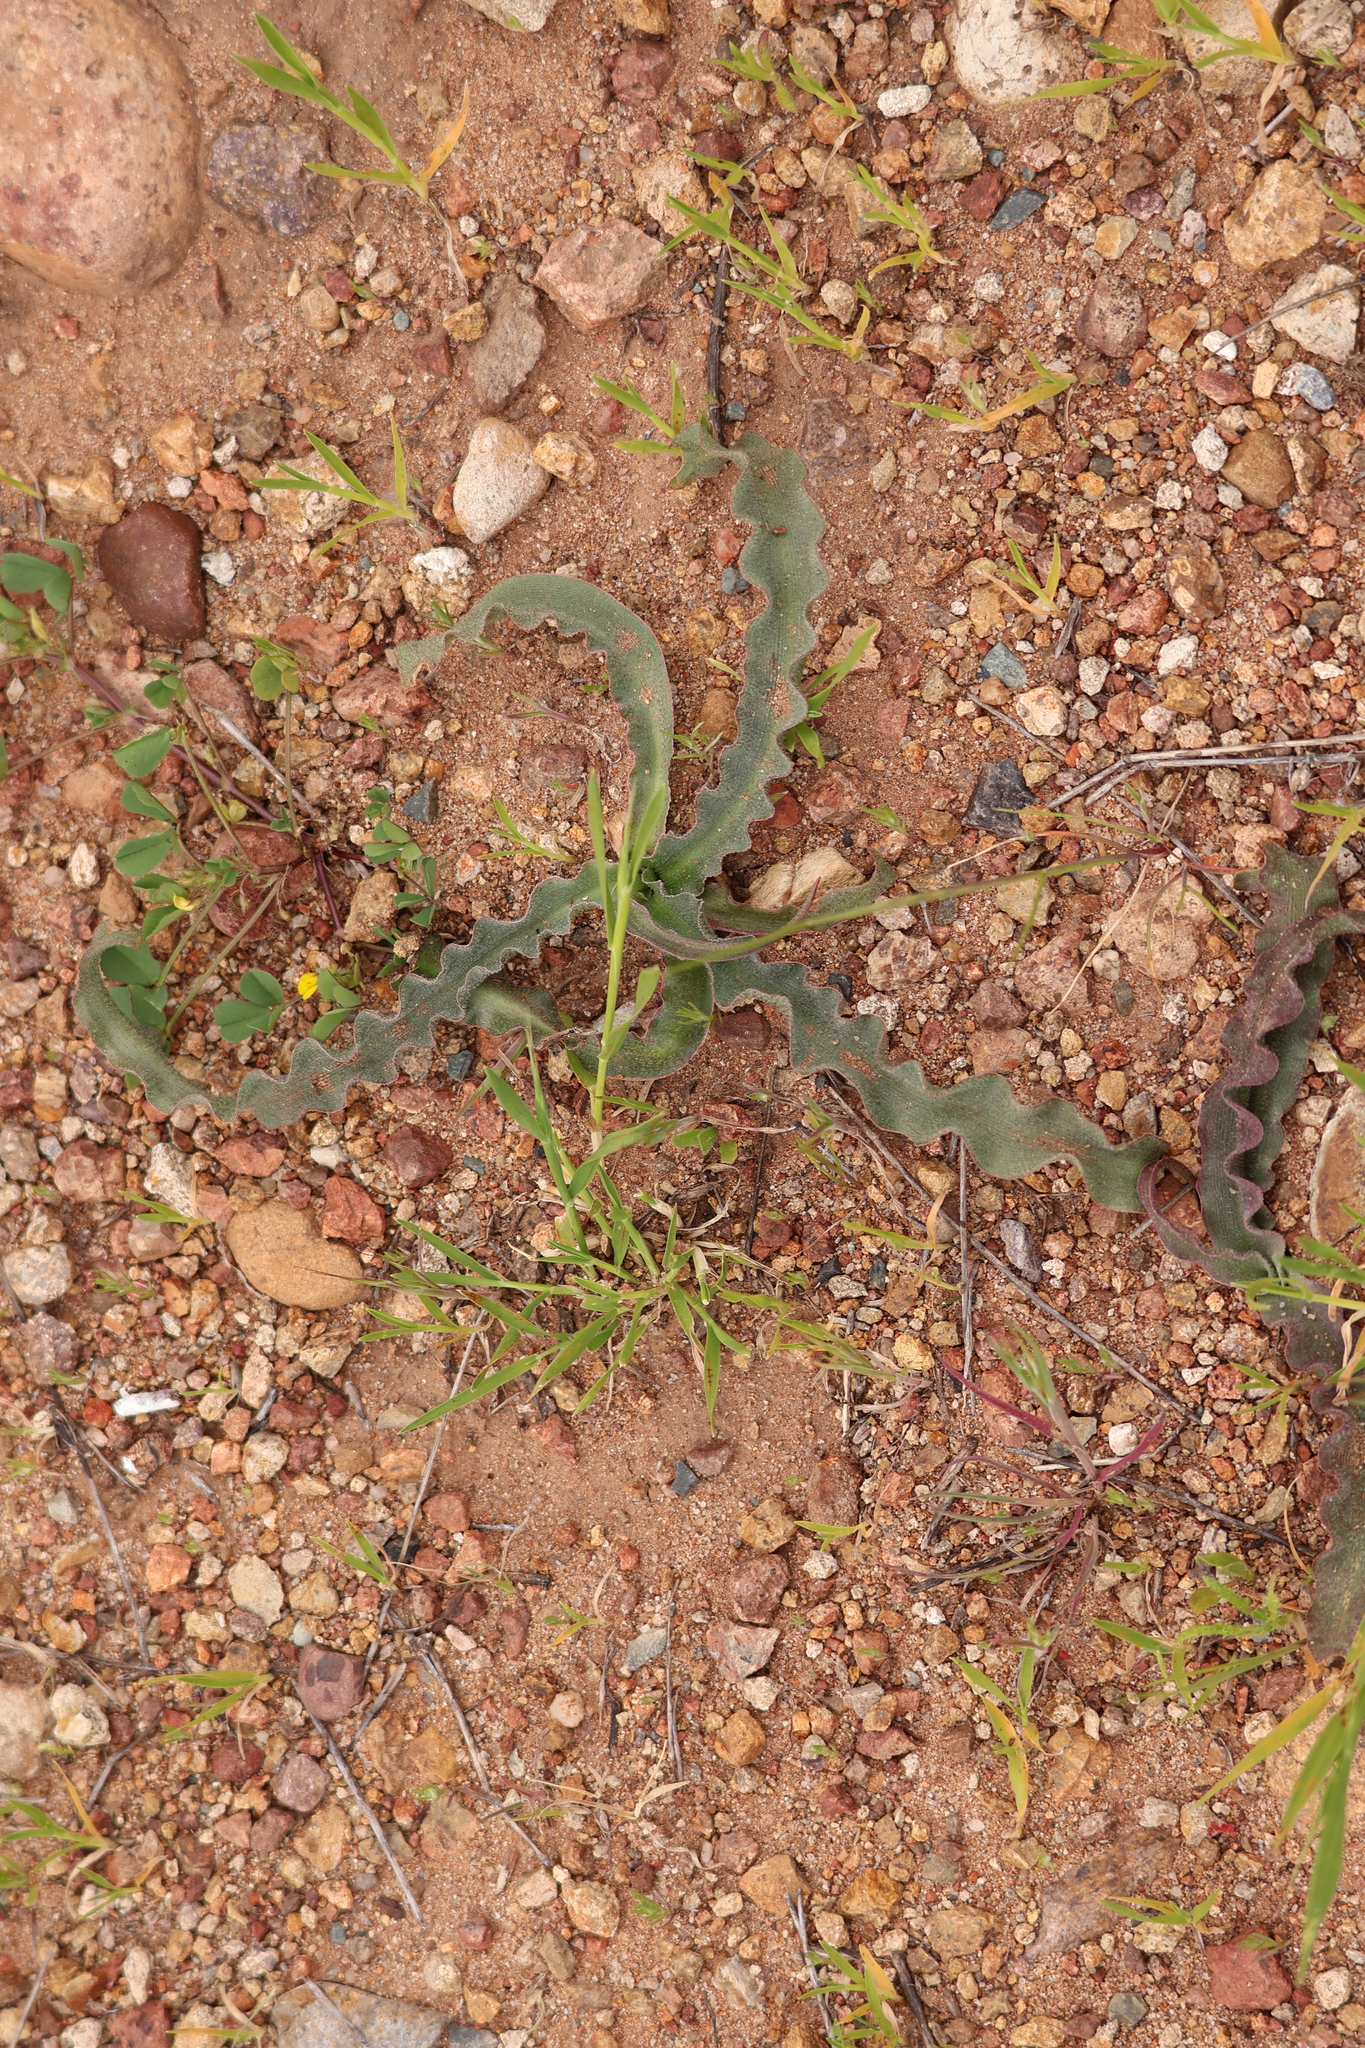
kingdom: Plantae
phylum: Tracheophyta
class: Liliopsida
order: Asparagales
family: Asparagaceae
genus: Hooveria
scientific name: Hooveria parviflora
